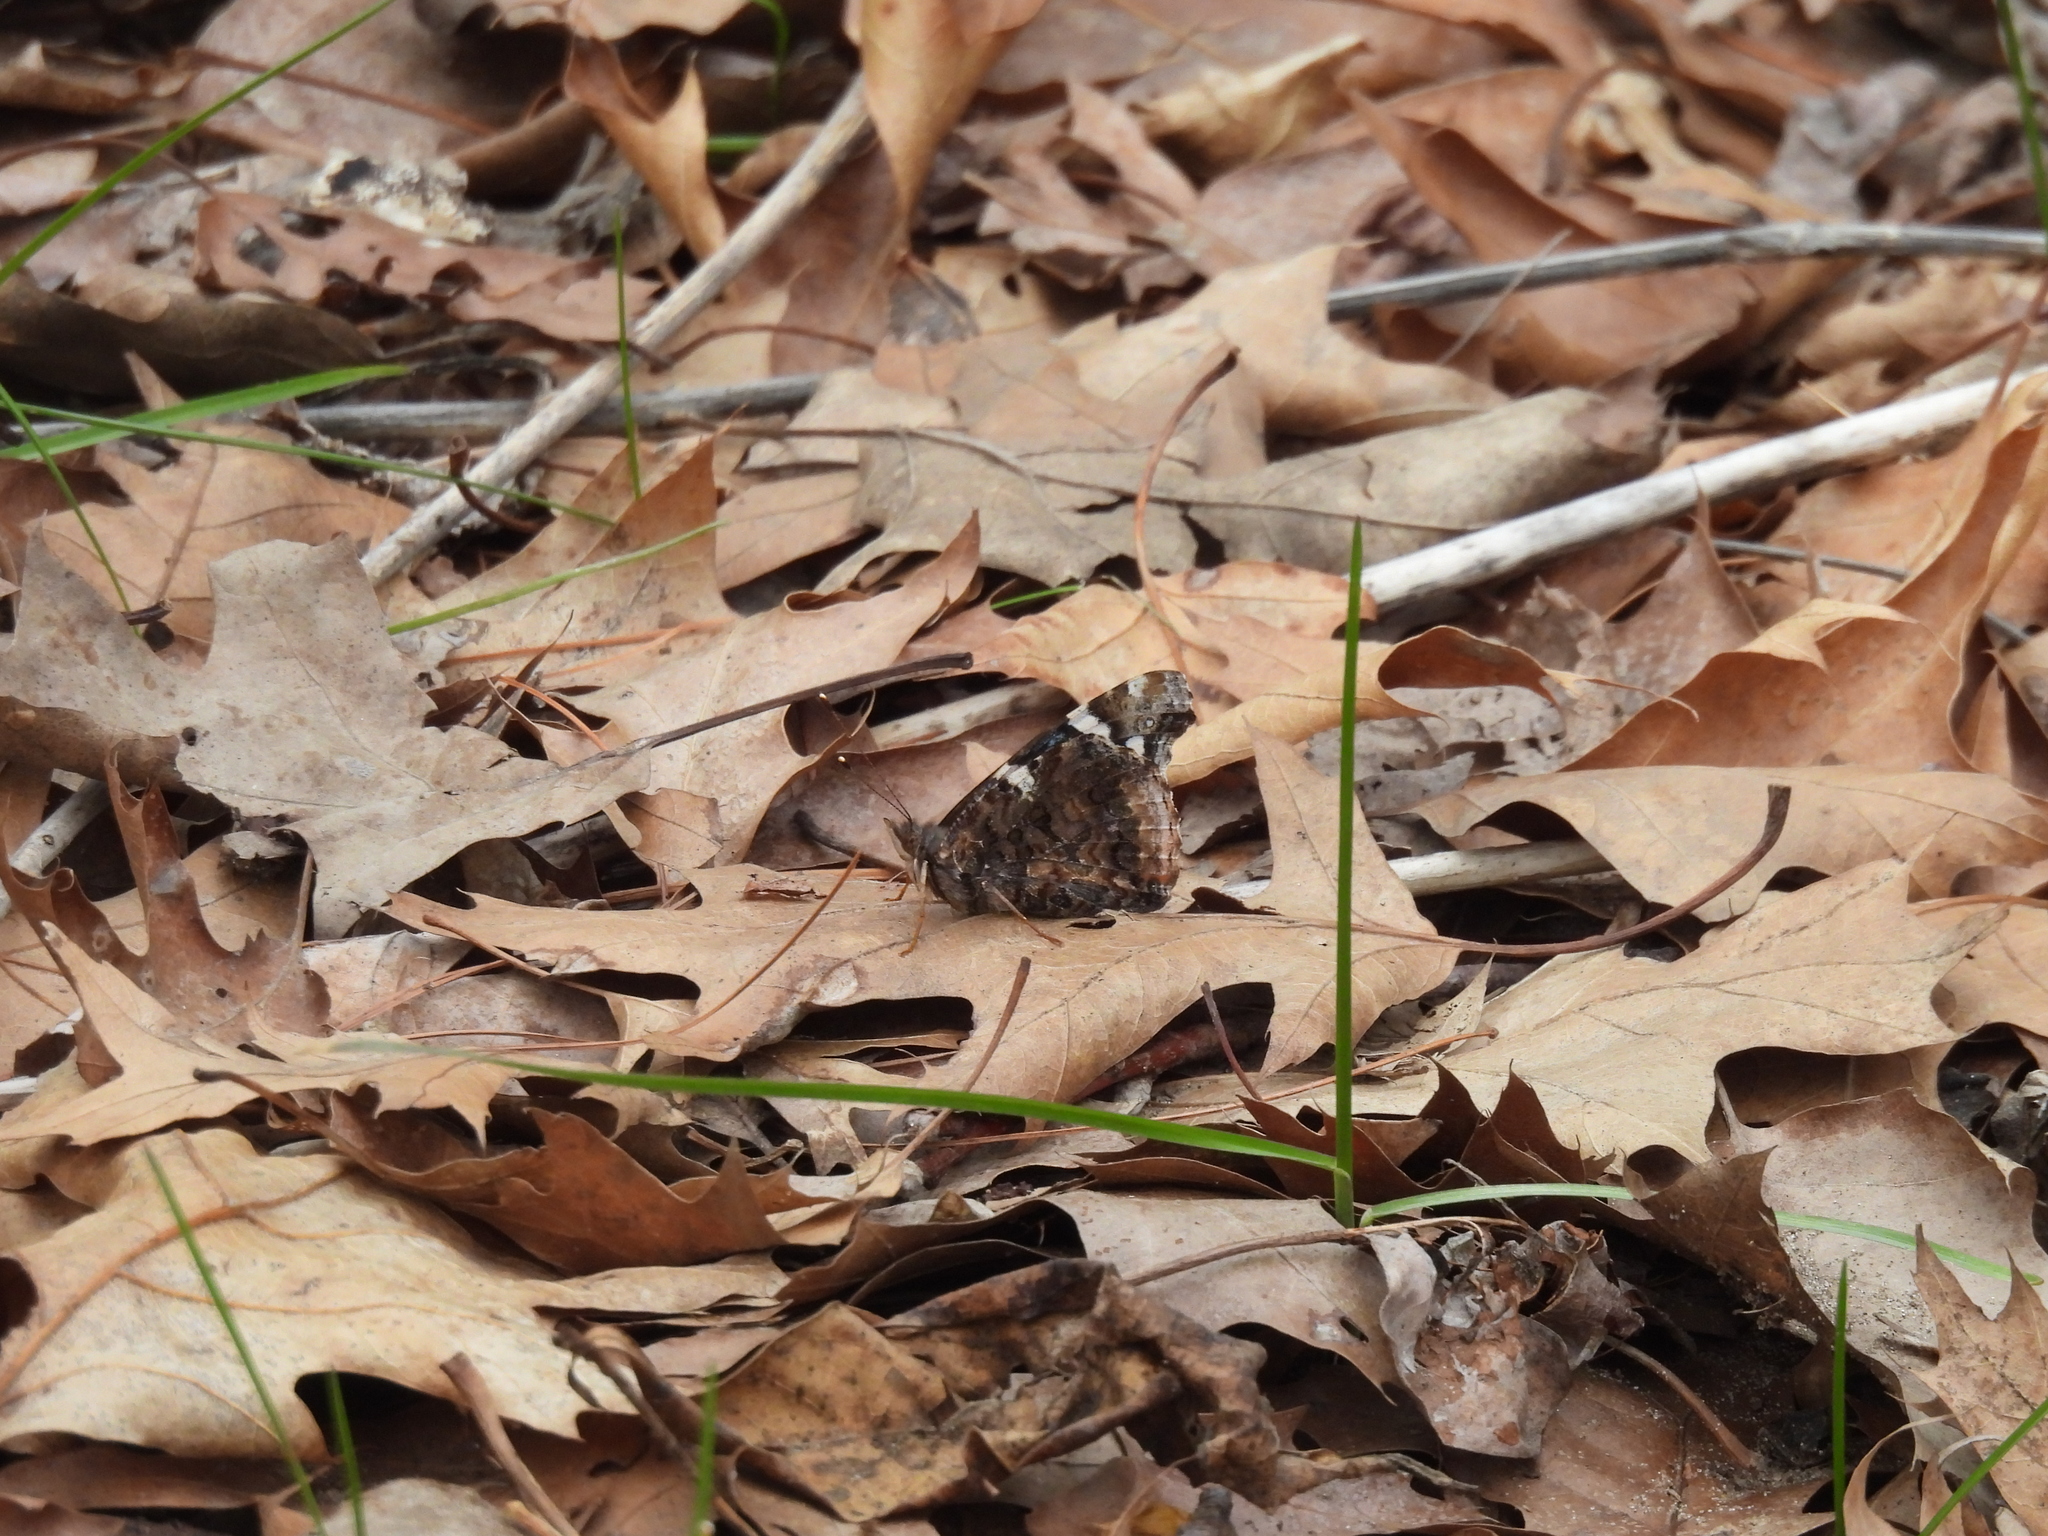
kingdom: Animalia
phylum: Arthropoda
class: Insecta
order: Lepidoptera
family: Nymphalidae
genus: Vanessa
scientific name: Vanessa atalanta
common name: Red admiral
